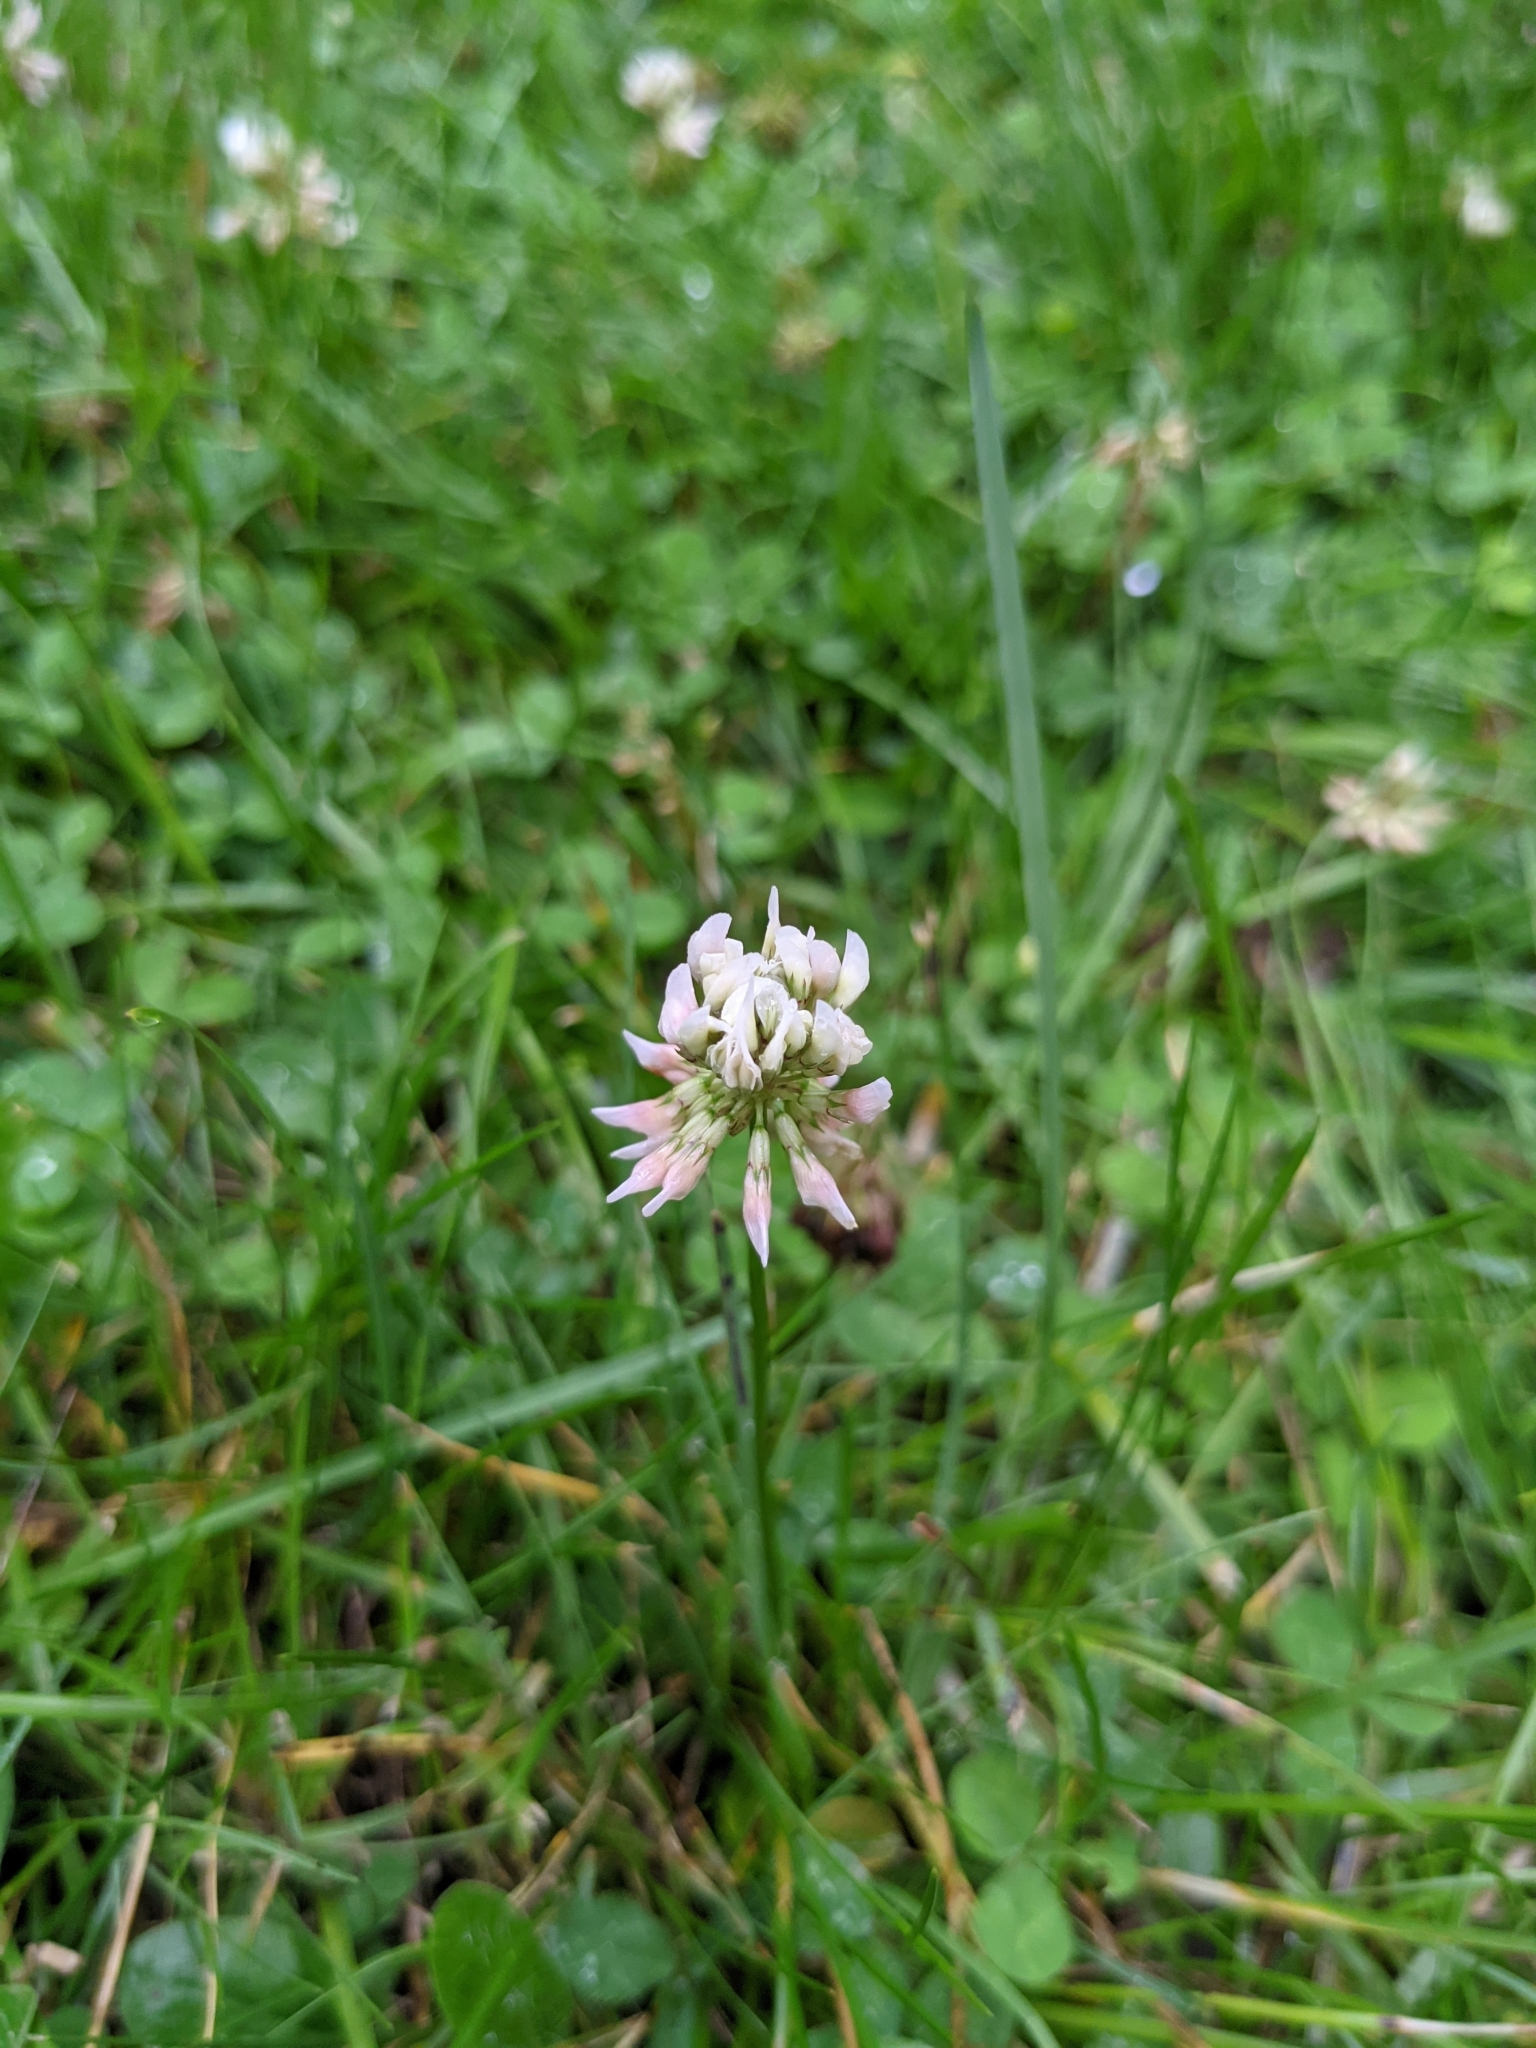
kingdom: Plantae
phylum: Tracheophyta
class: Magnoliopsida
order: Fabales
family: Fabaceae
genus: Trifolium
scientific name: Trifolium repens
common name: White clover
